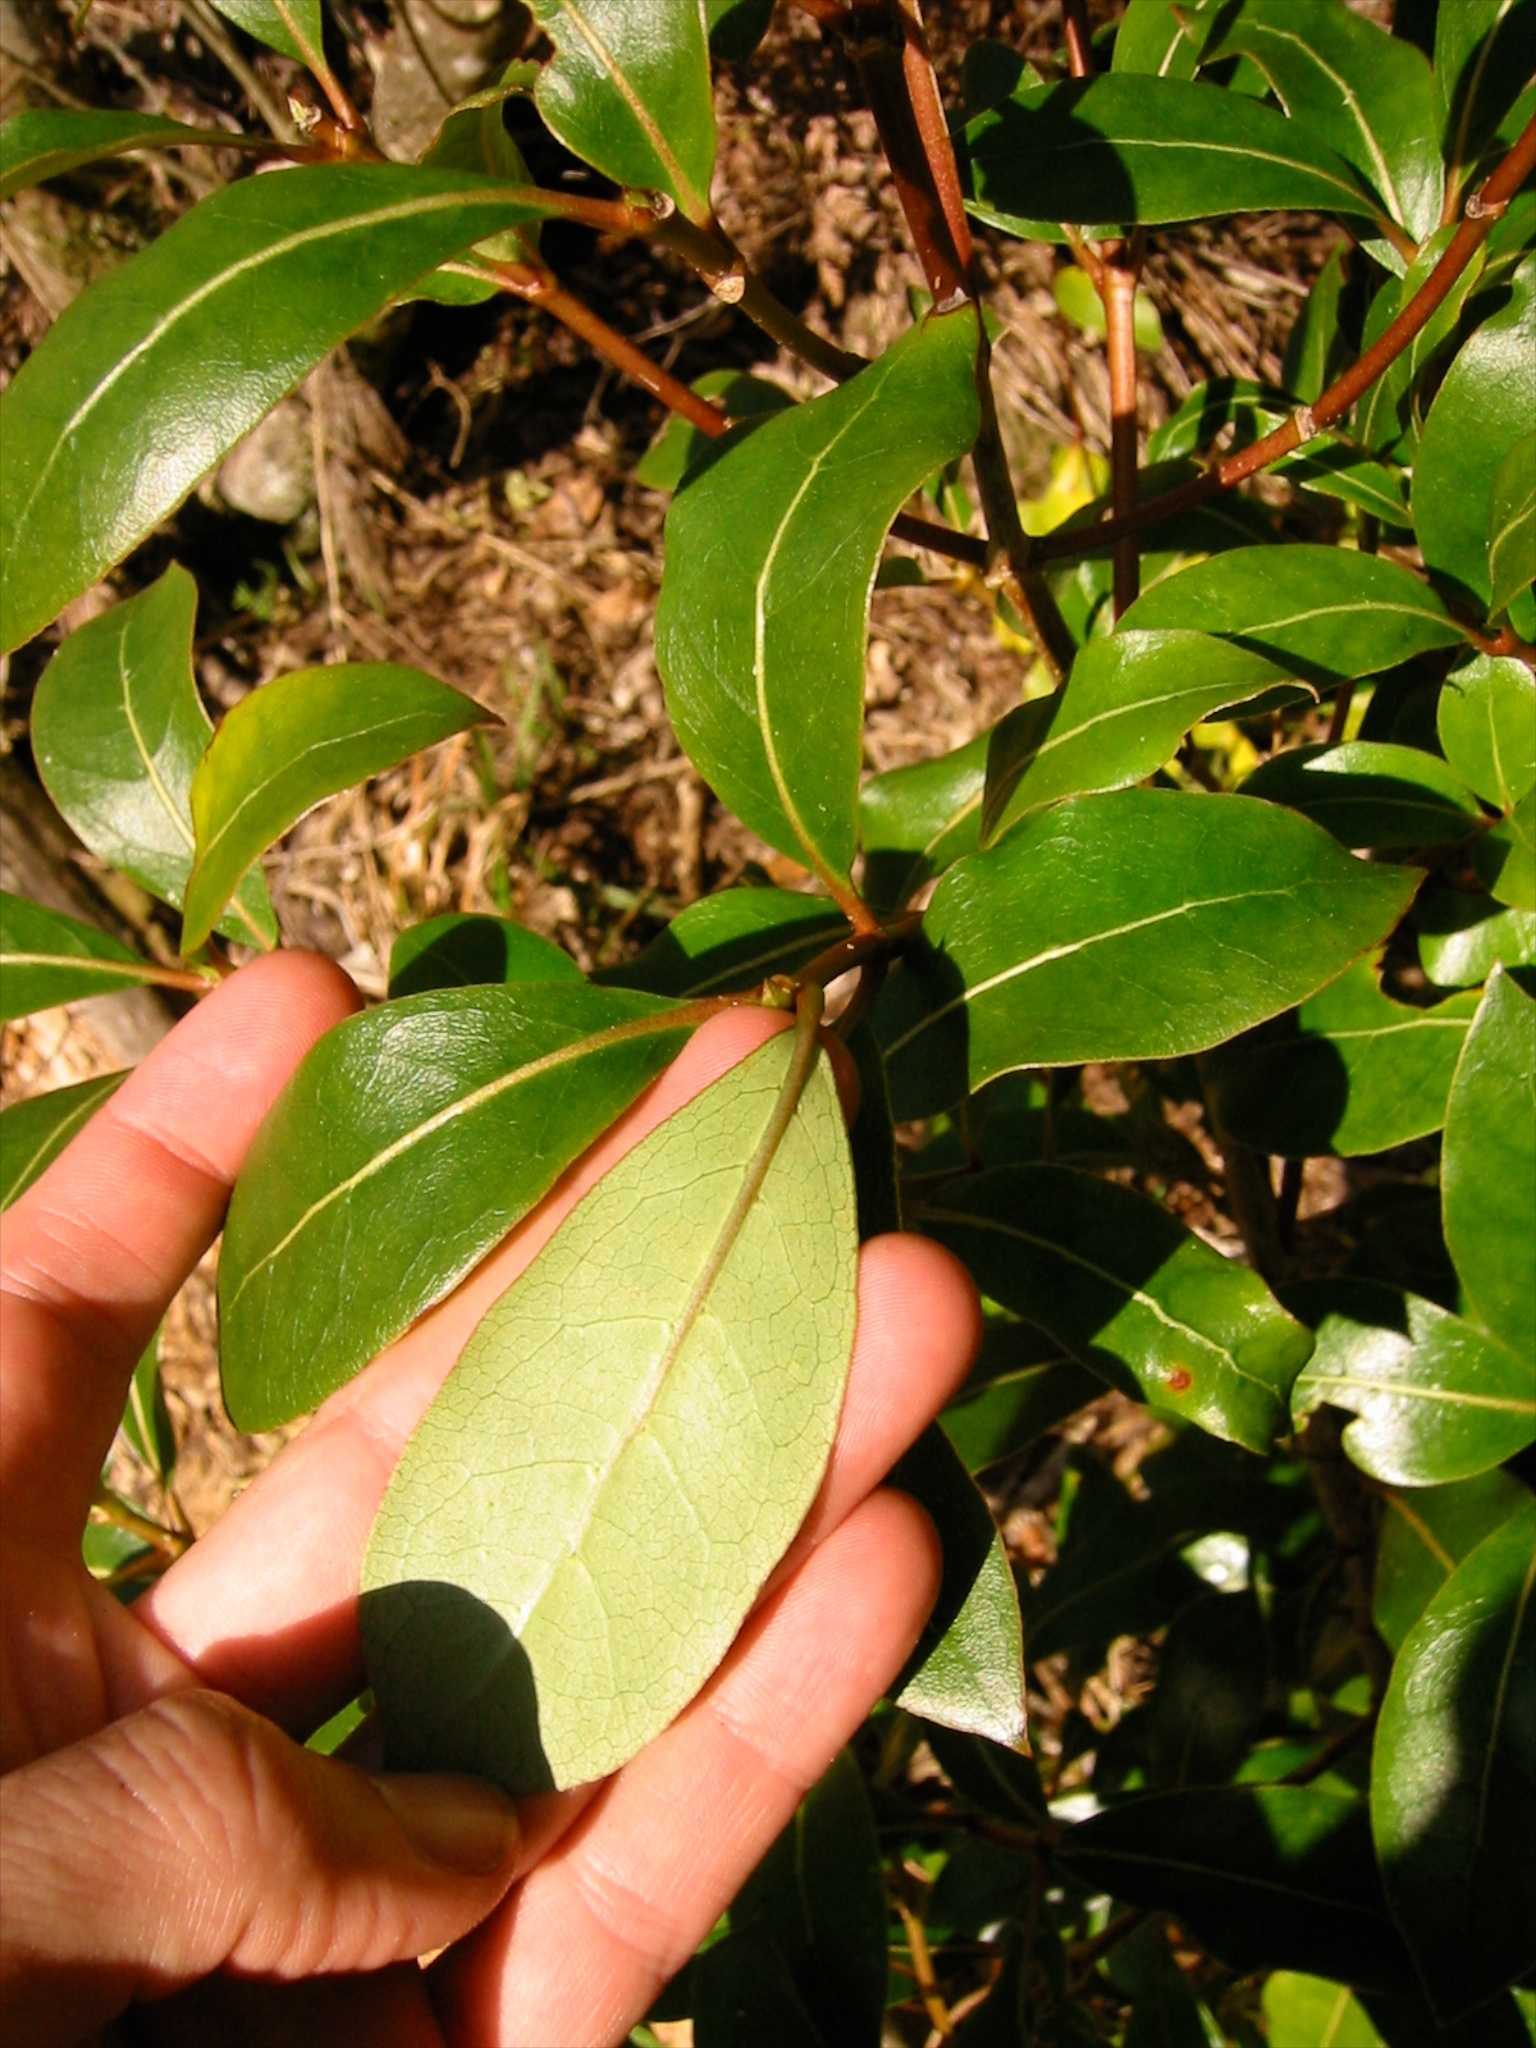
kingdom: Plantae
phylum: Tracheophyta
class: Magnoliopsida
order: Gentianales
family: Rubiaceae
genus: Coprosma
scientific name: Coprosma lucida
